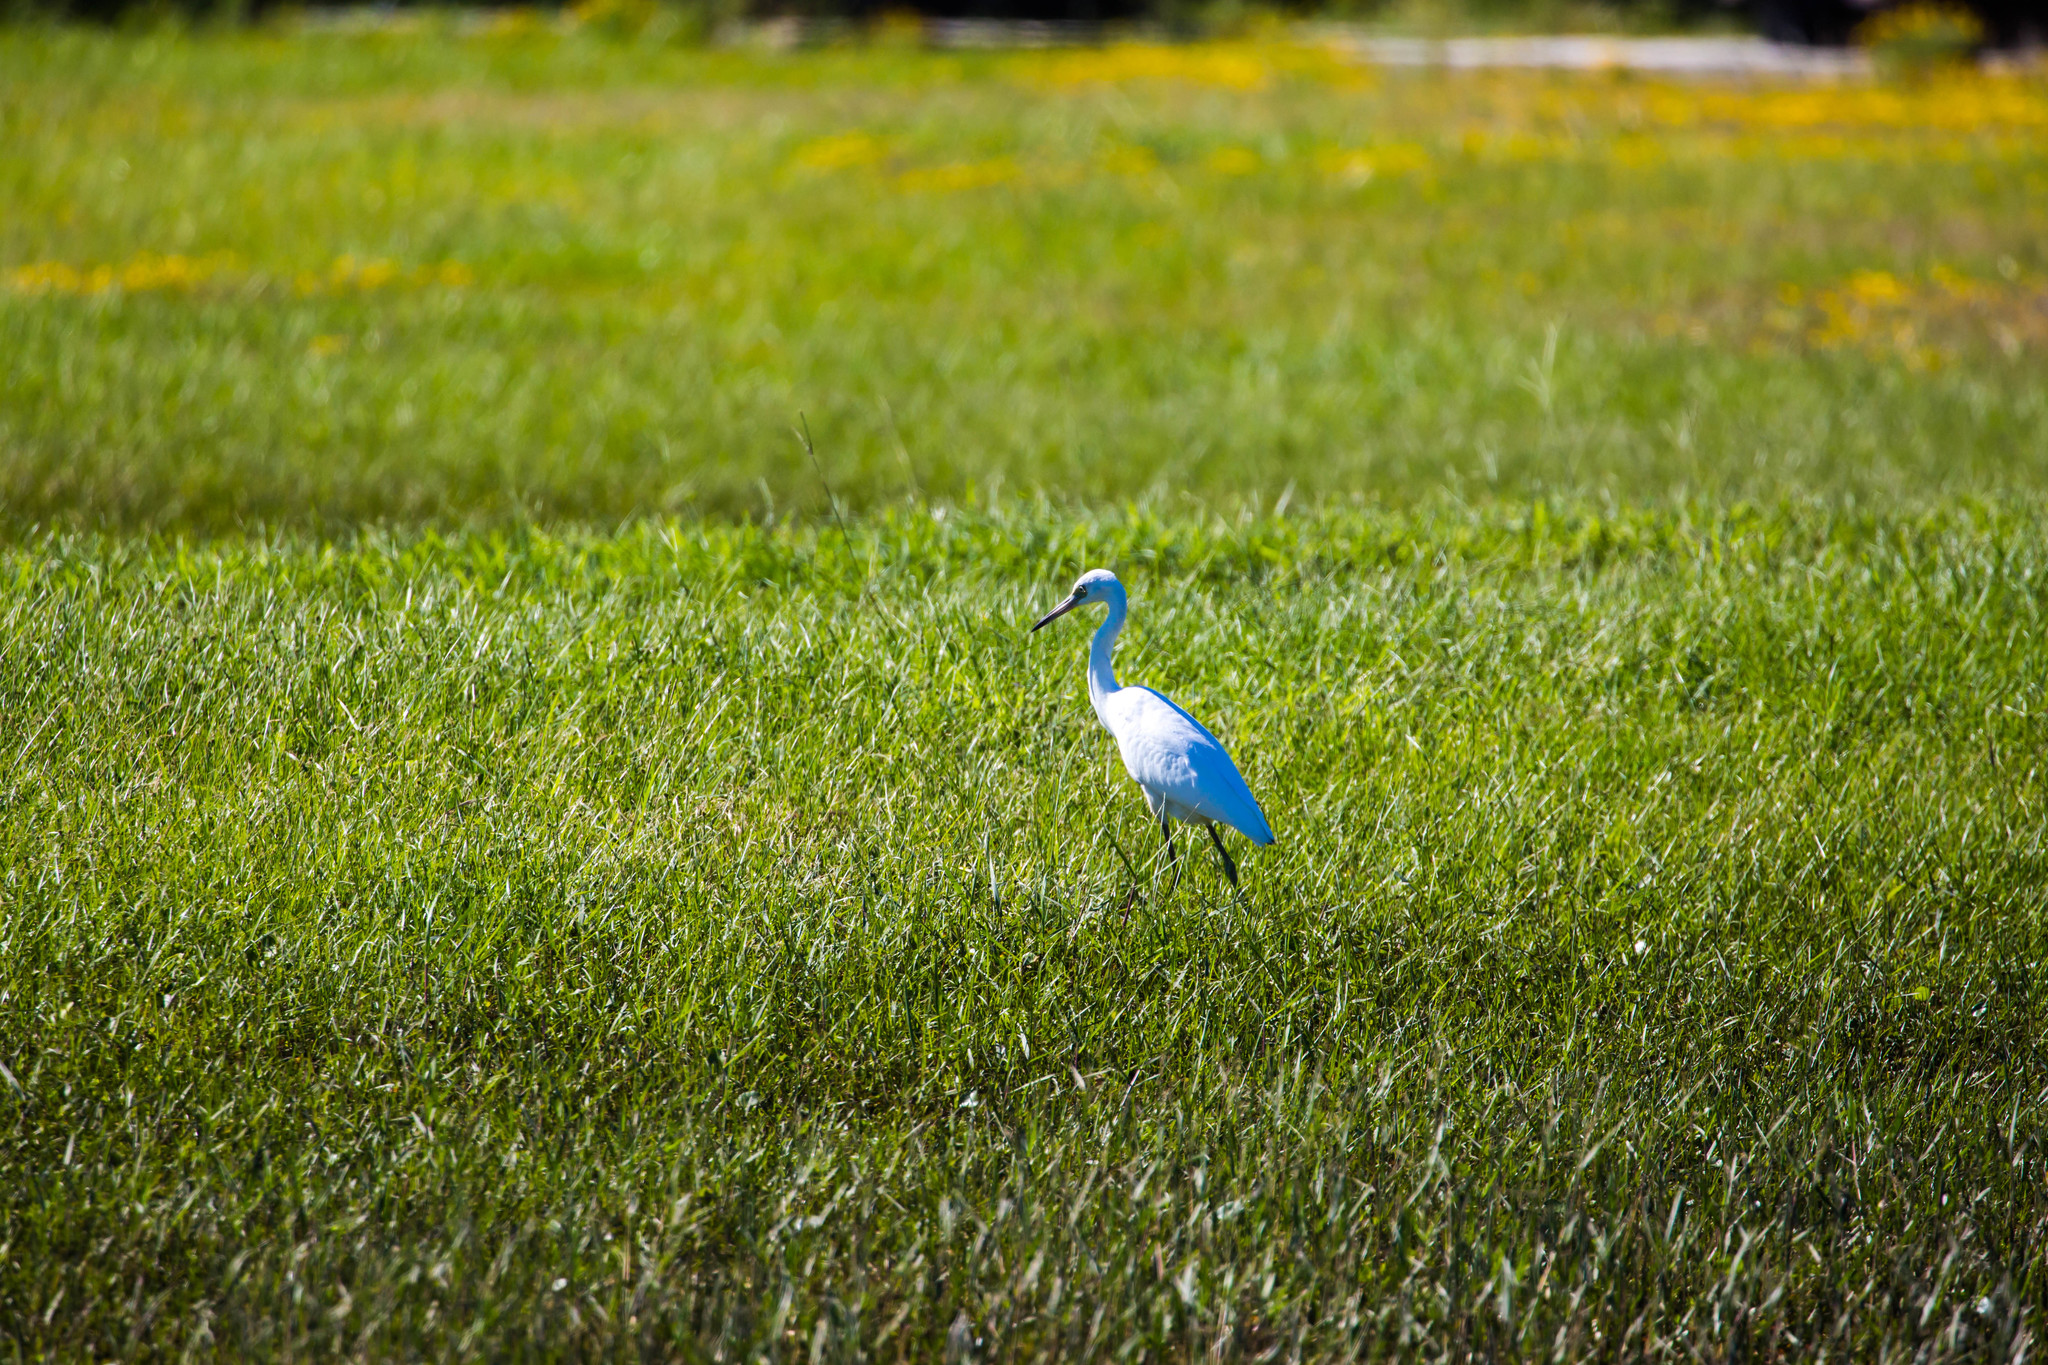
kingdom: Animalia
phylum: Chordata
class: Aves
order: Pelecaniformes
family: Ardeidae
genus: Egretta
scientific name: Egretta caerulea
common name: Little blue heron
